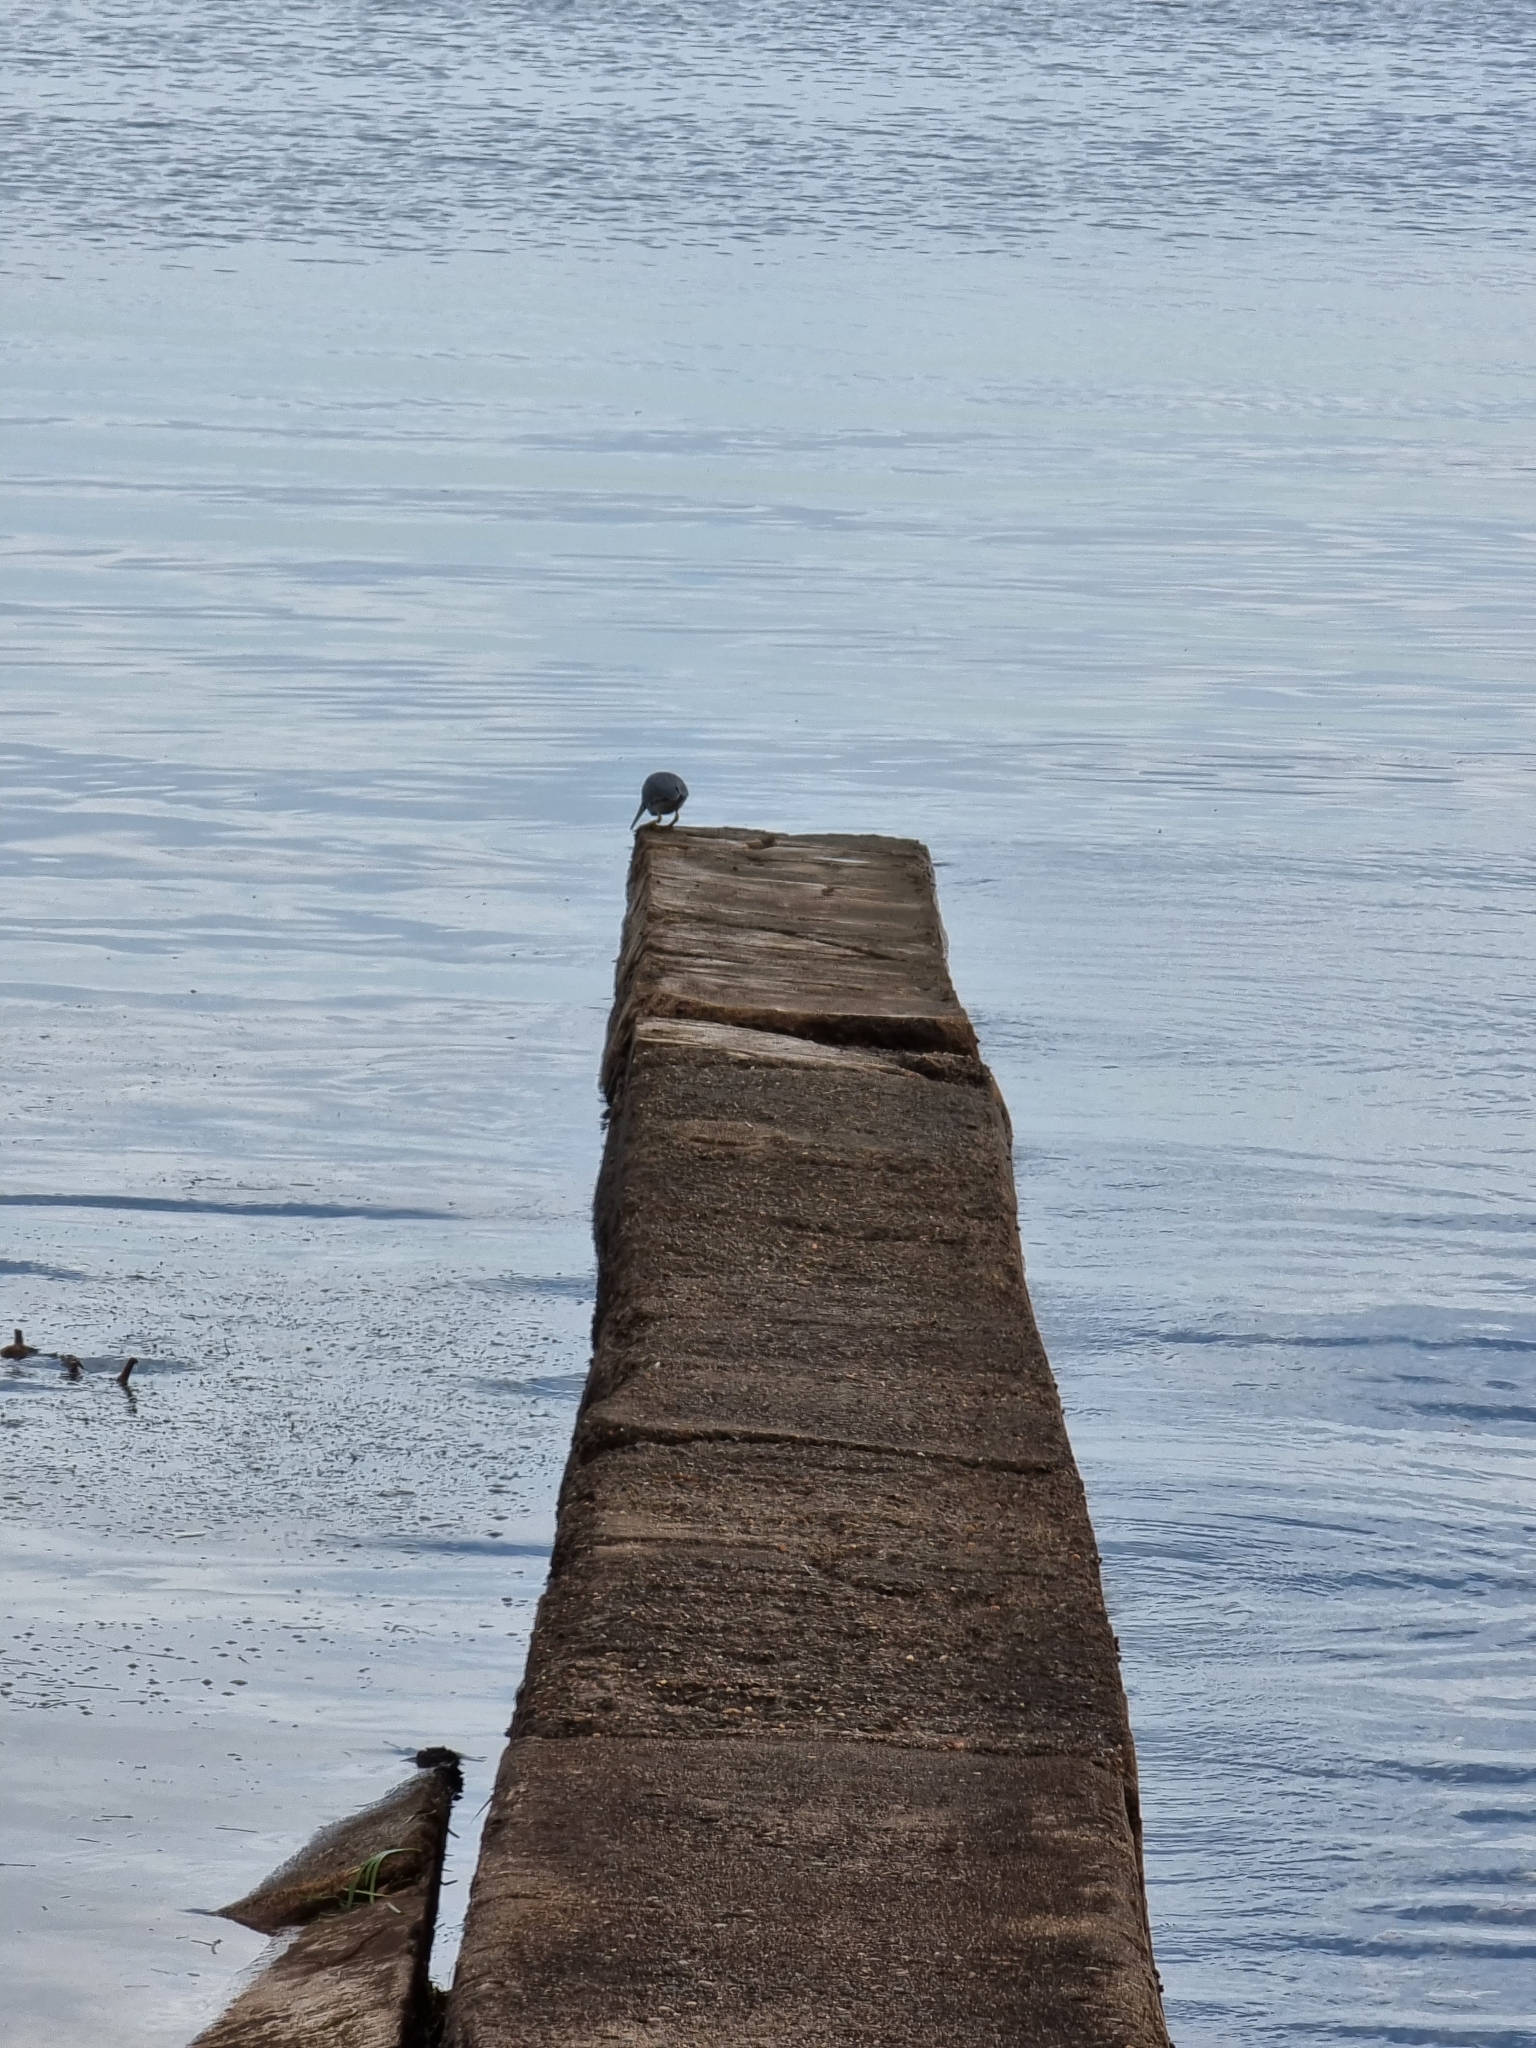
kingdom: Animalia
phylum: Chordata
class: Aves
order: Pelecaniformes
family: Ardeidae
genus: Butorides
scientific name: Butorides striata
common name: Striated heron
